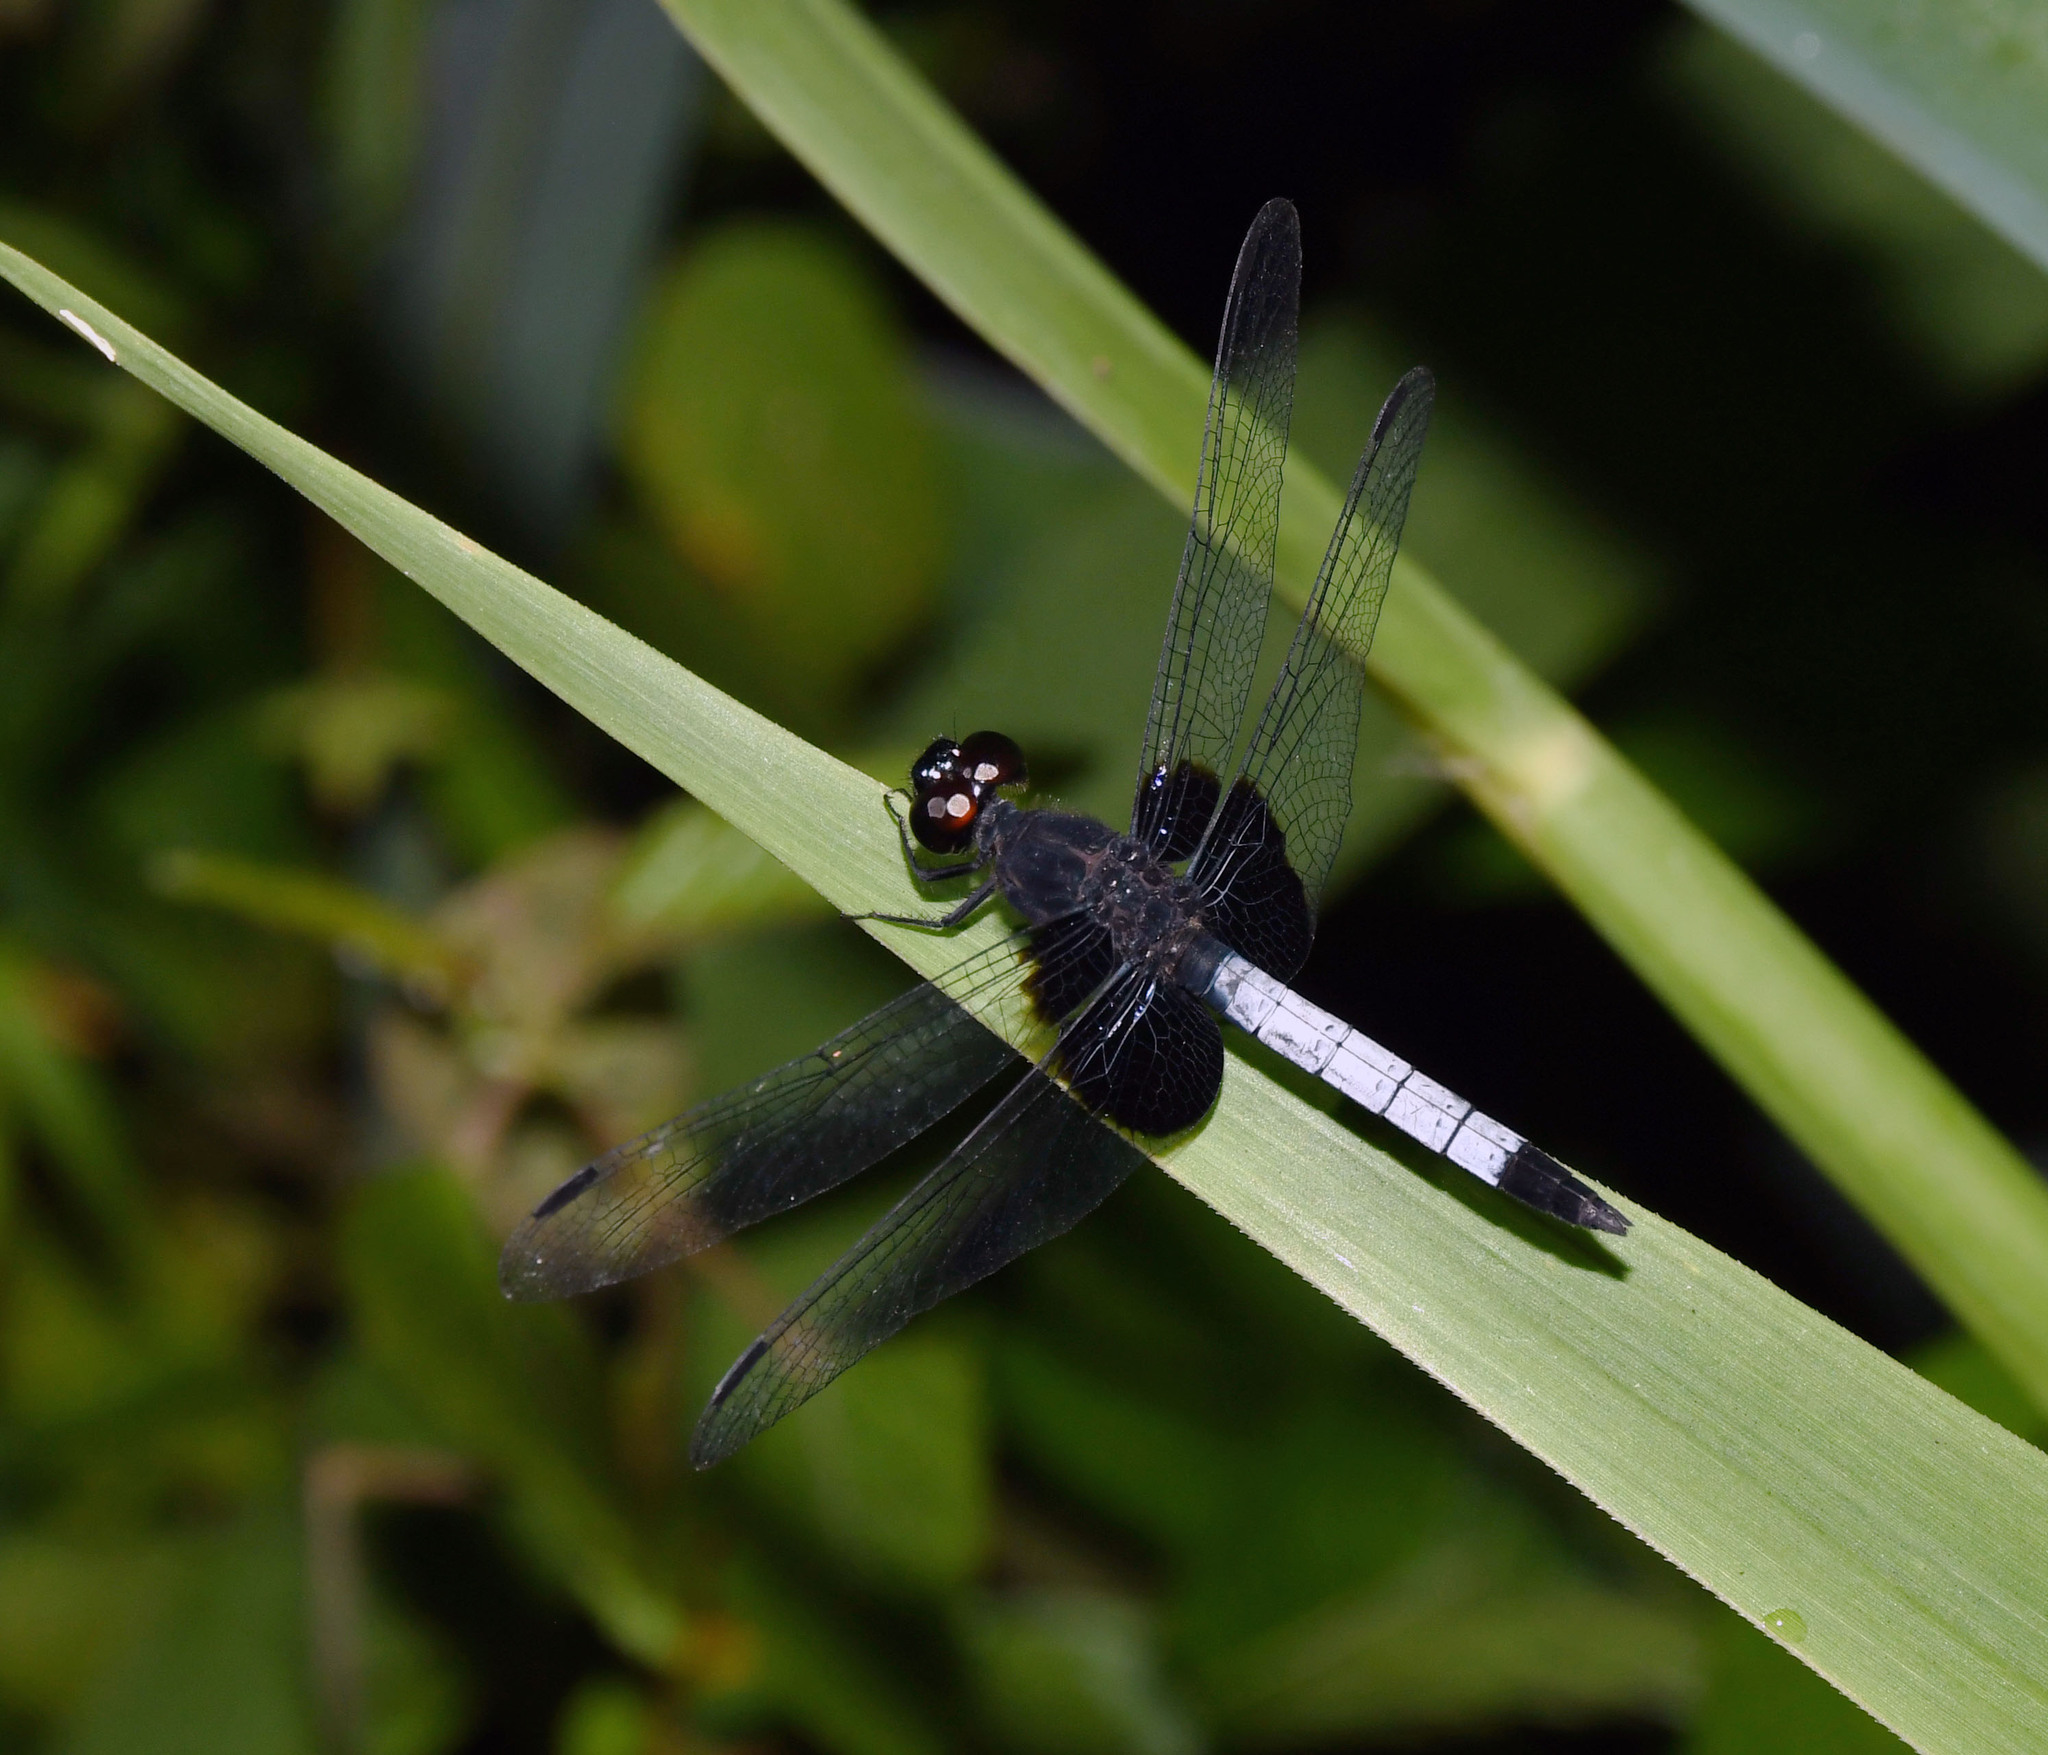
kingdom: Animalia
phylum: Arthropoda
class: Insecta
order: Odonata
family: Libellulidae
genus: Erythrodiplax
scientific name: Erythrodiplax unimaculata
